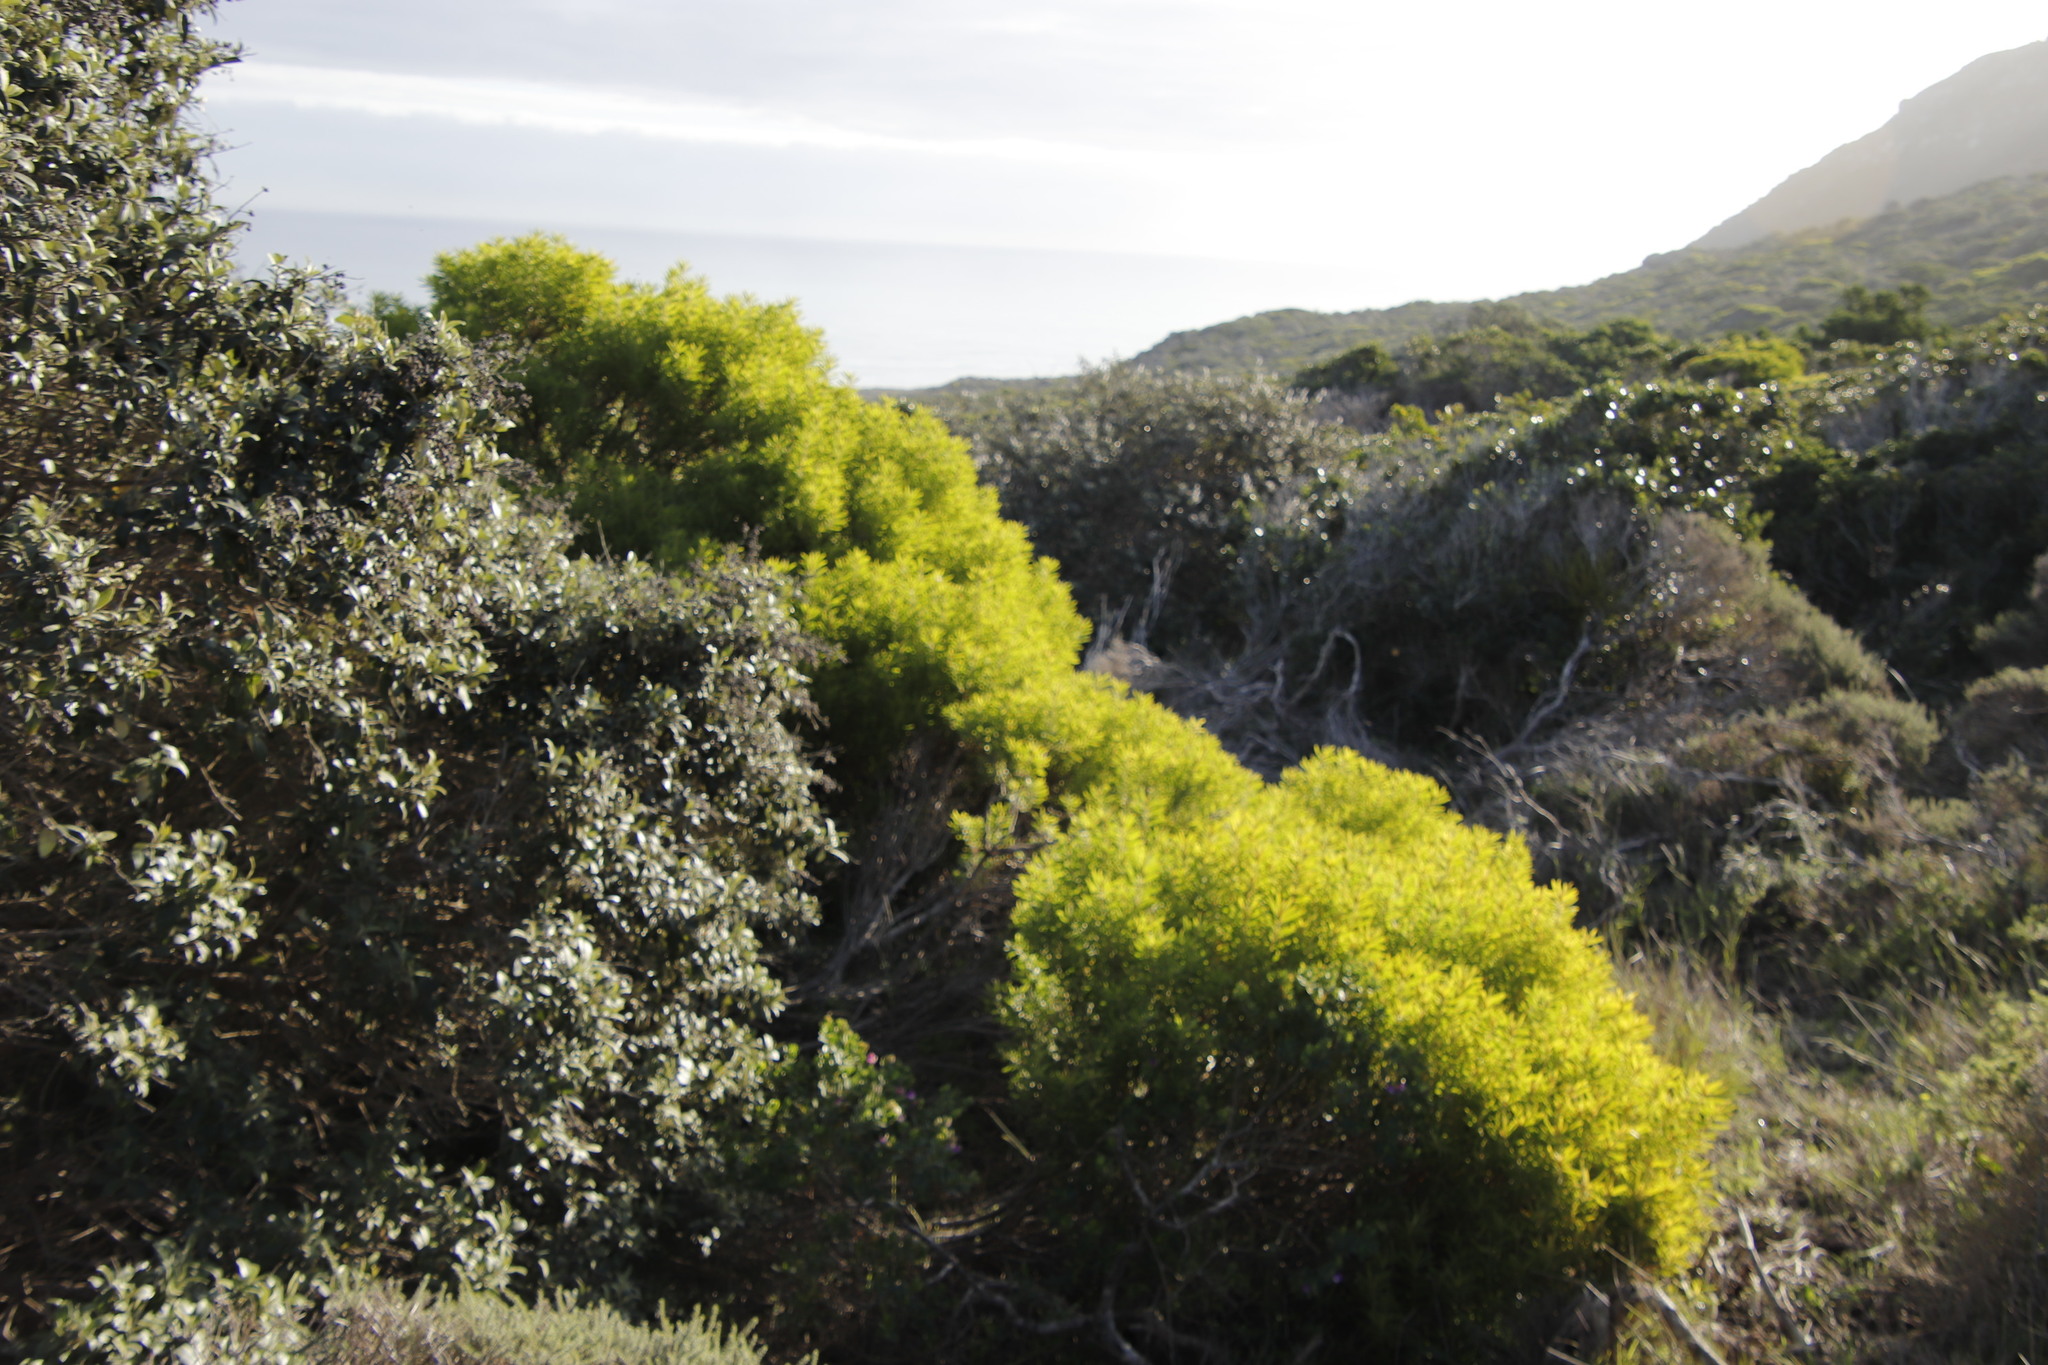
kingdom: Plantae
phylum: Tracheophyta
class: Magnoliopsida
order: Proteales
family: Proteaceae
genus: Leucadendron
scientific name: Leucadendron coniferum
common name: Dune conebush
